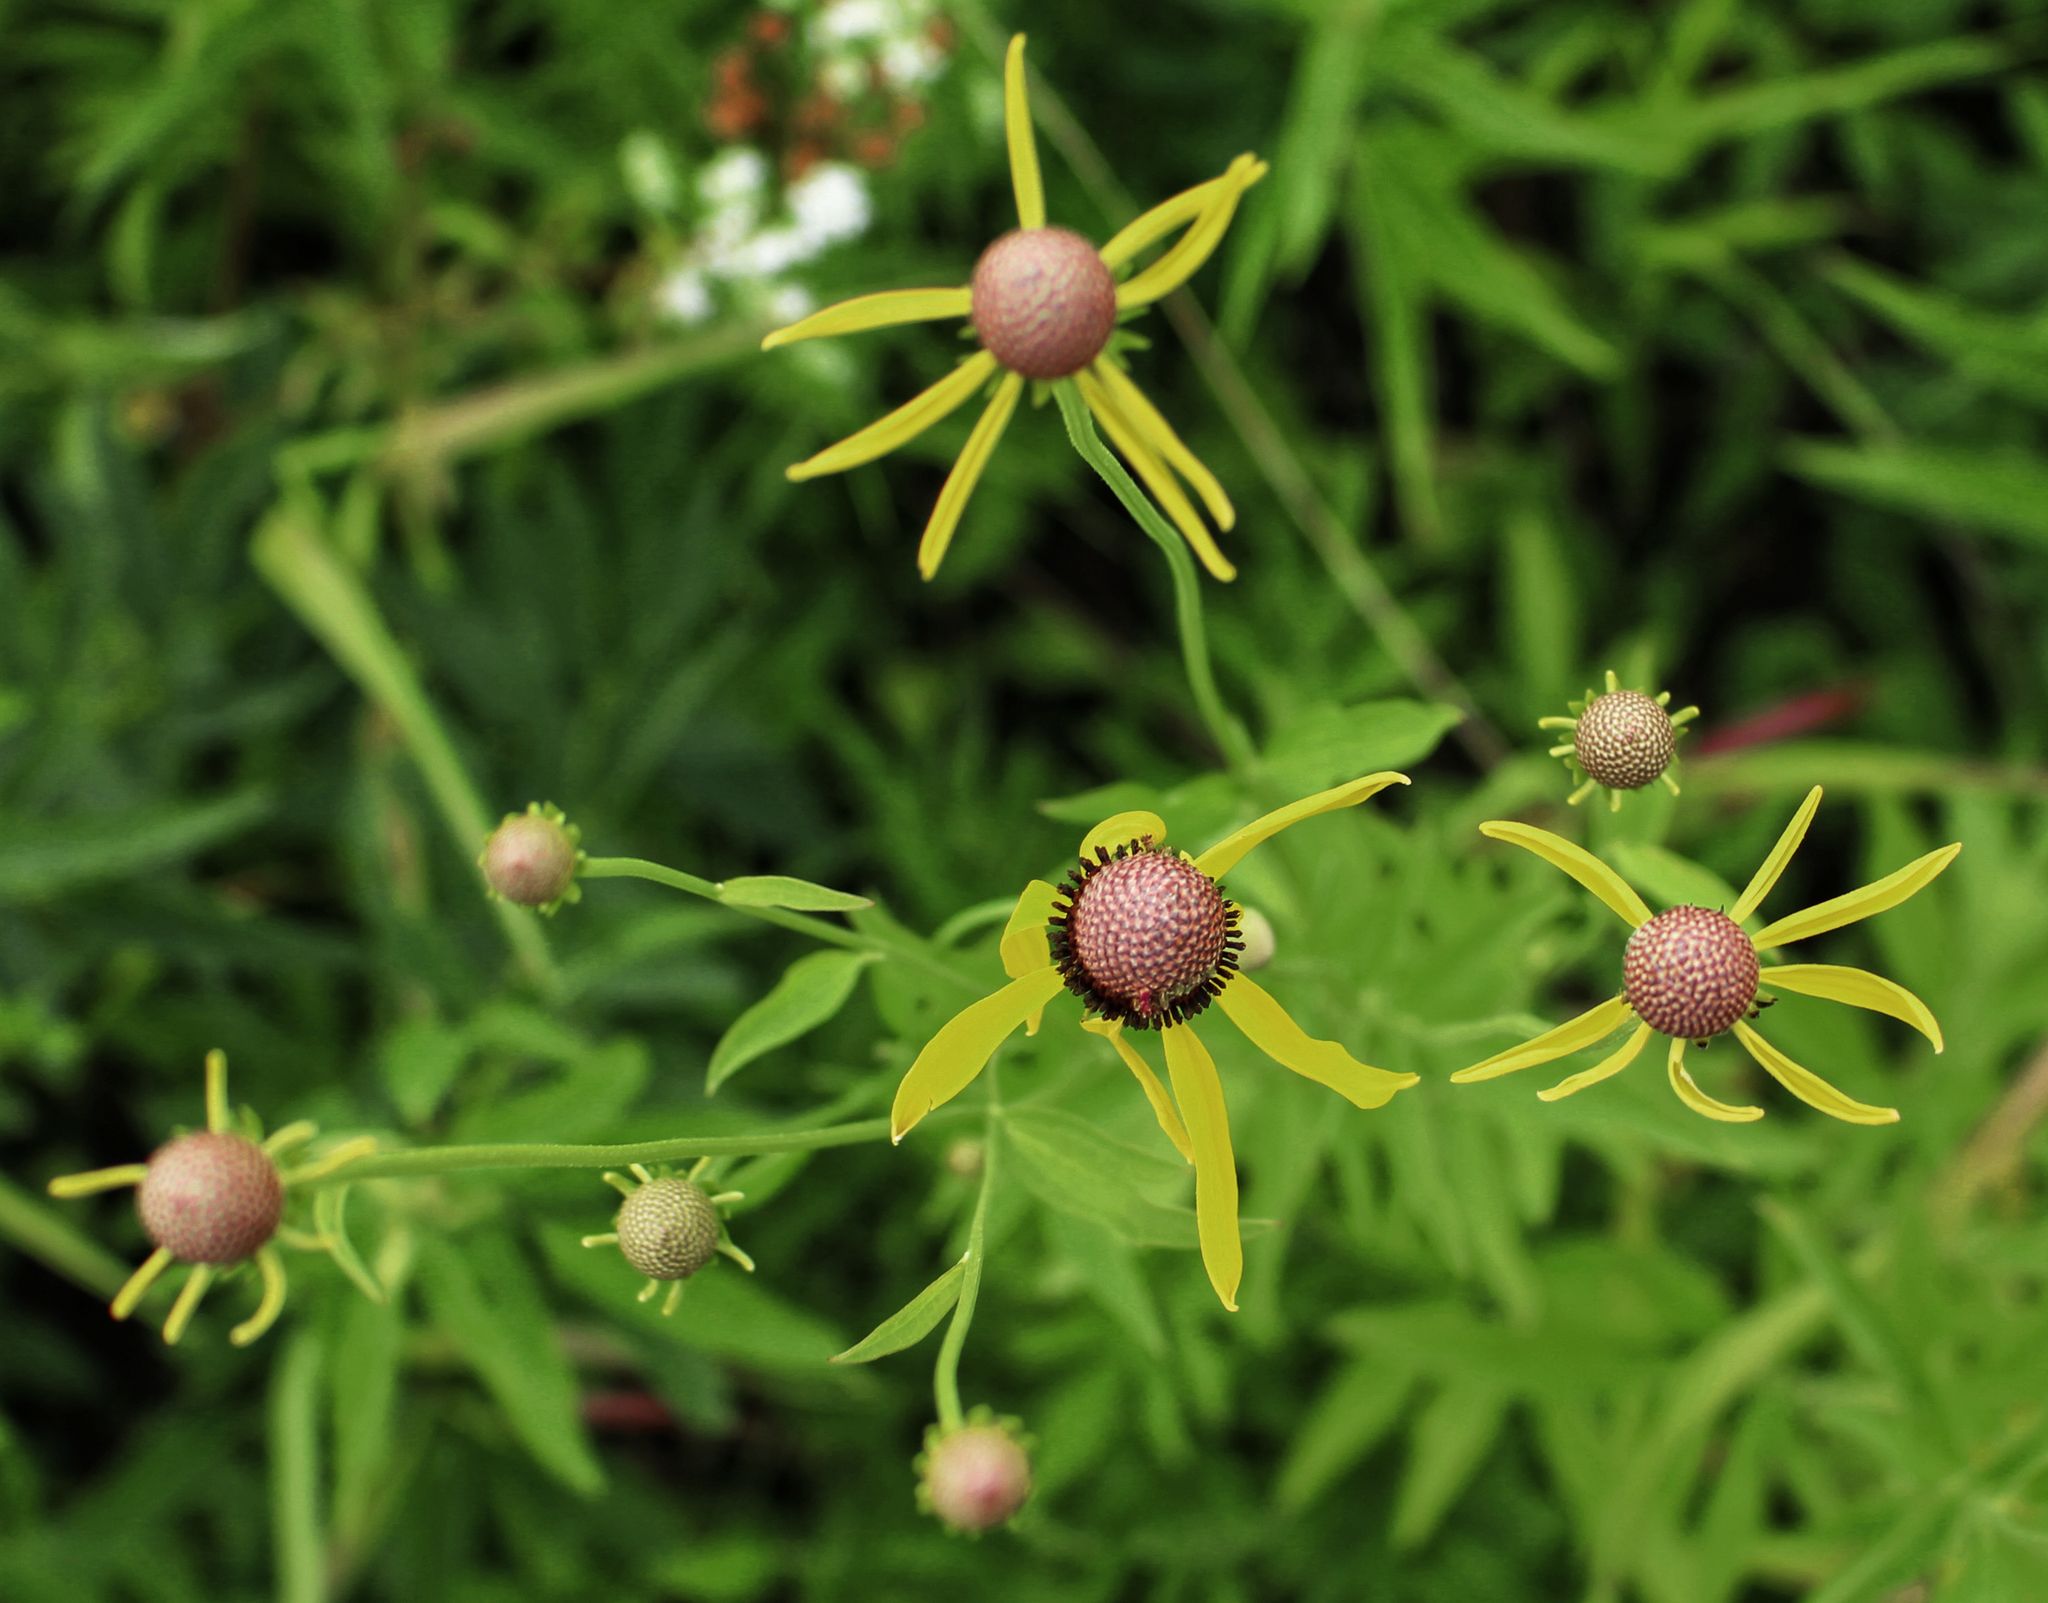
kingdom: Plantae
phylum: Tracheophyta
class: Magnoliopsida
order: Asterales
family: Asteraceae
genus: Ratibida
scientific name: Ratibida pinnata
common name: Drooping prairie-coneflower
